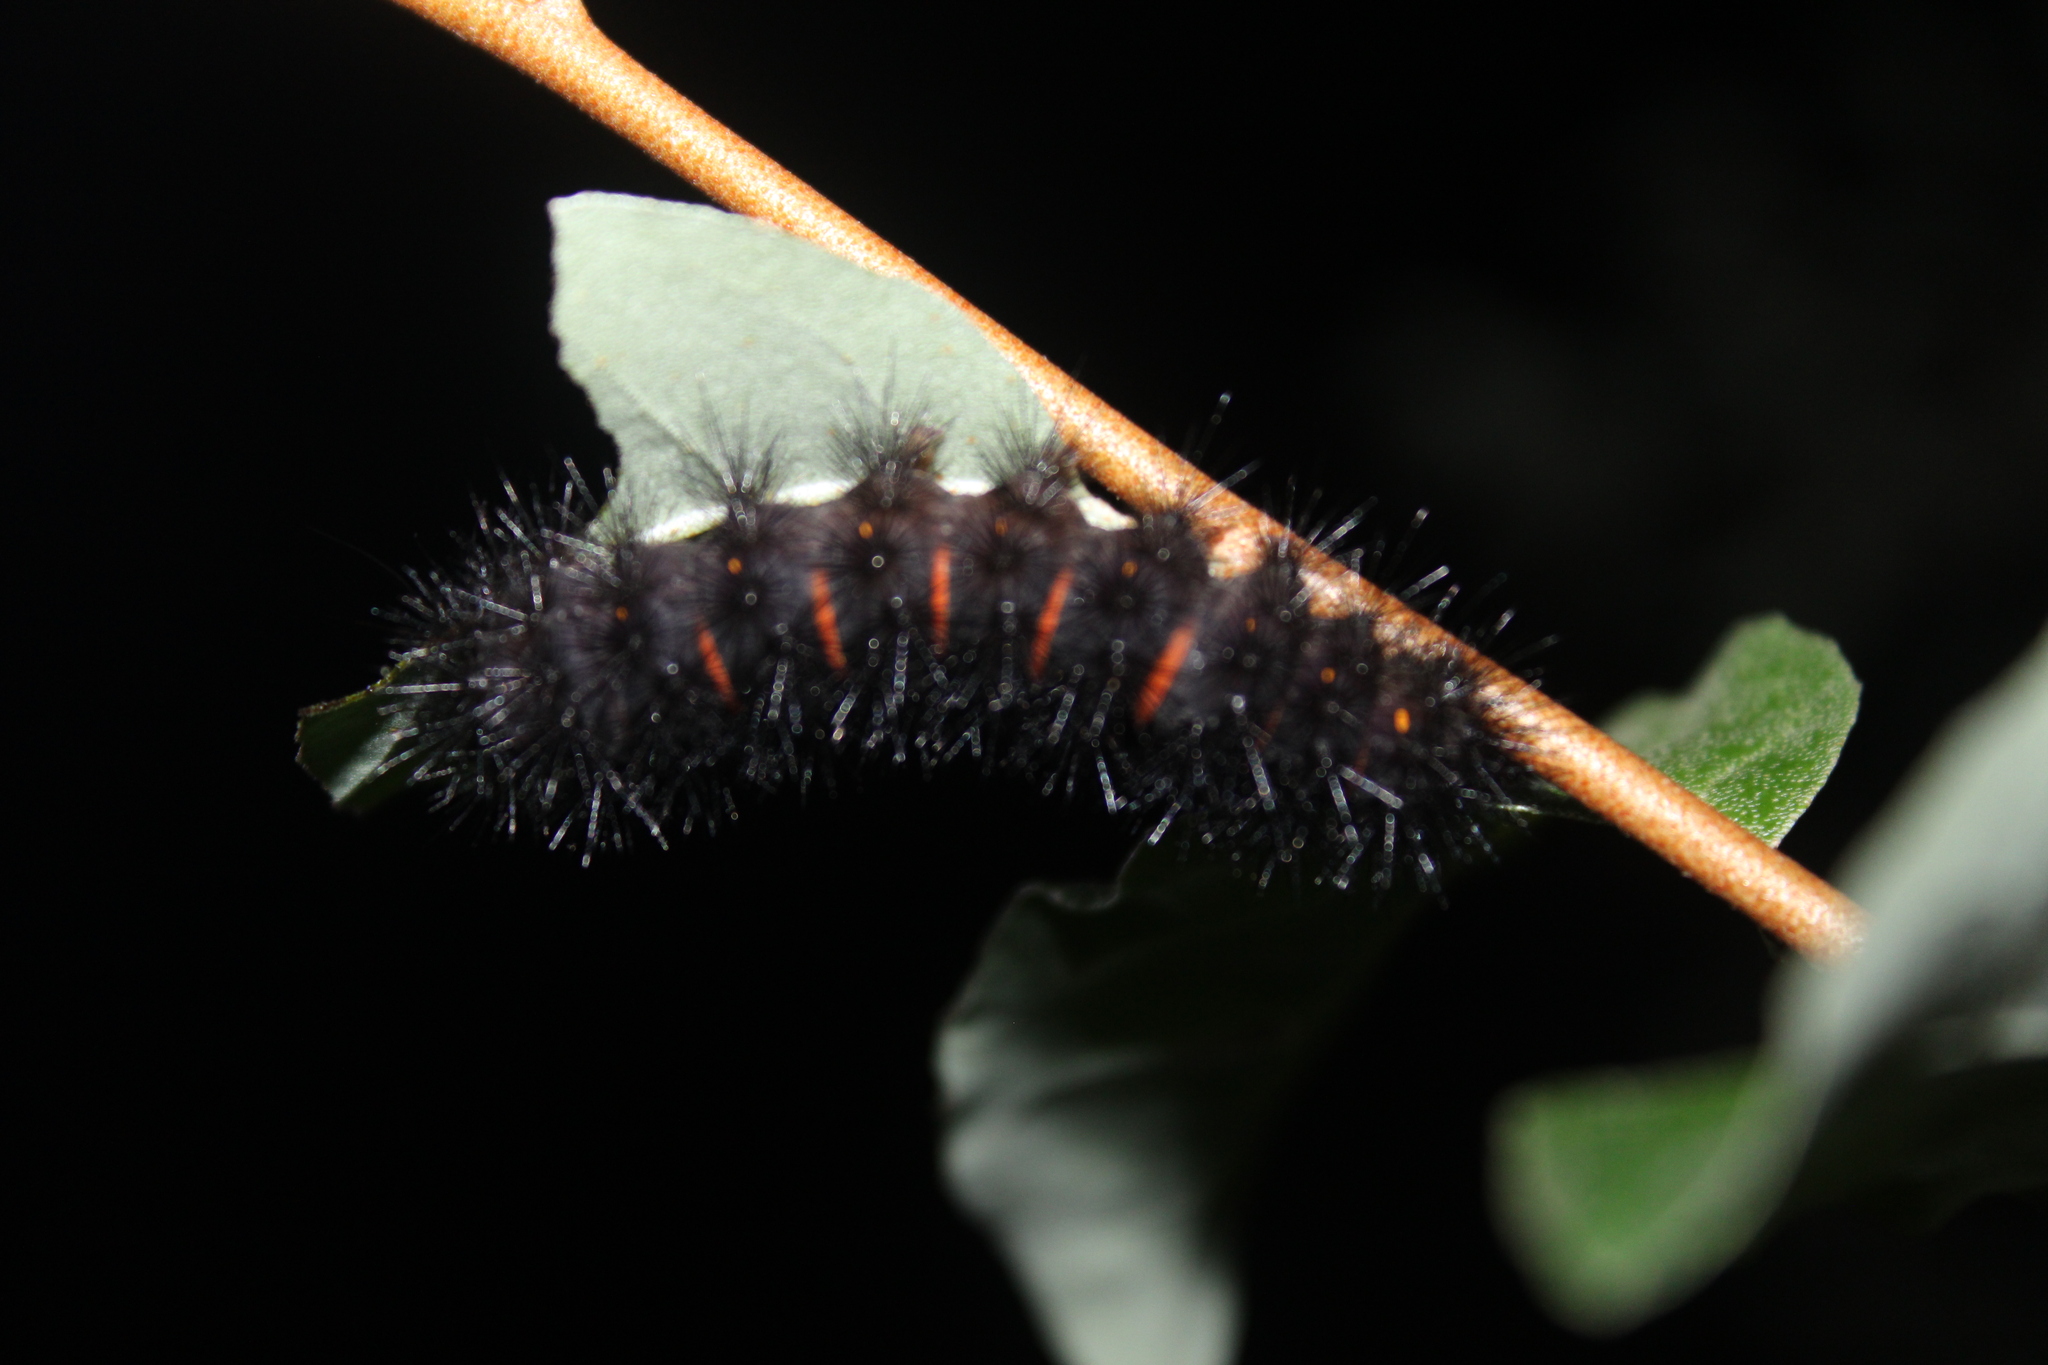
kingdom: Animalia
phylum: Arthropoda
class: Insecta
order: Lepidoptera
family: Erebidae
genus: Hypercompe
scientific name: Hypercompe scribonia
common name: Giant leopard moth
